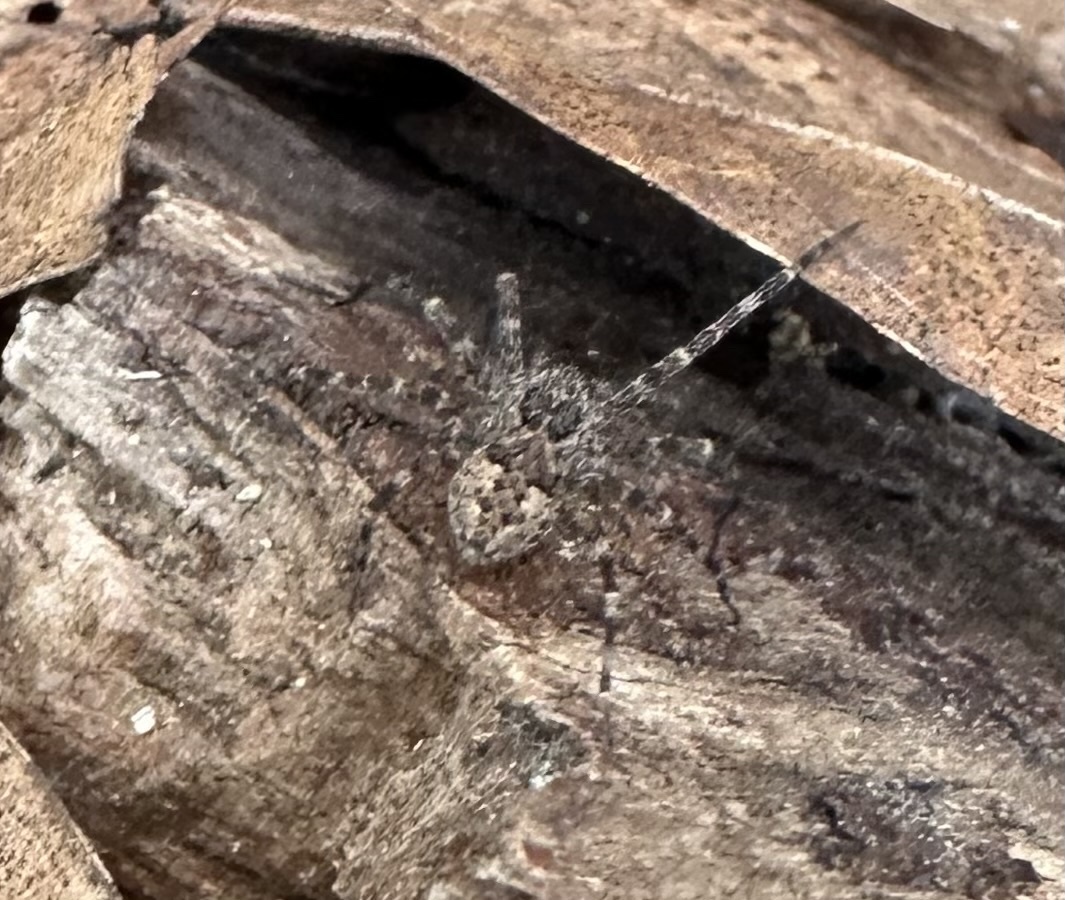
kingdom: Animalia
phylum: Arthropoda
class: Arachnida
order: Araneae
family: Pisauridae
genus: Dolomedes
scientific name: Dolomedes tenebrosus
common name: Dark fishing spider
